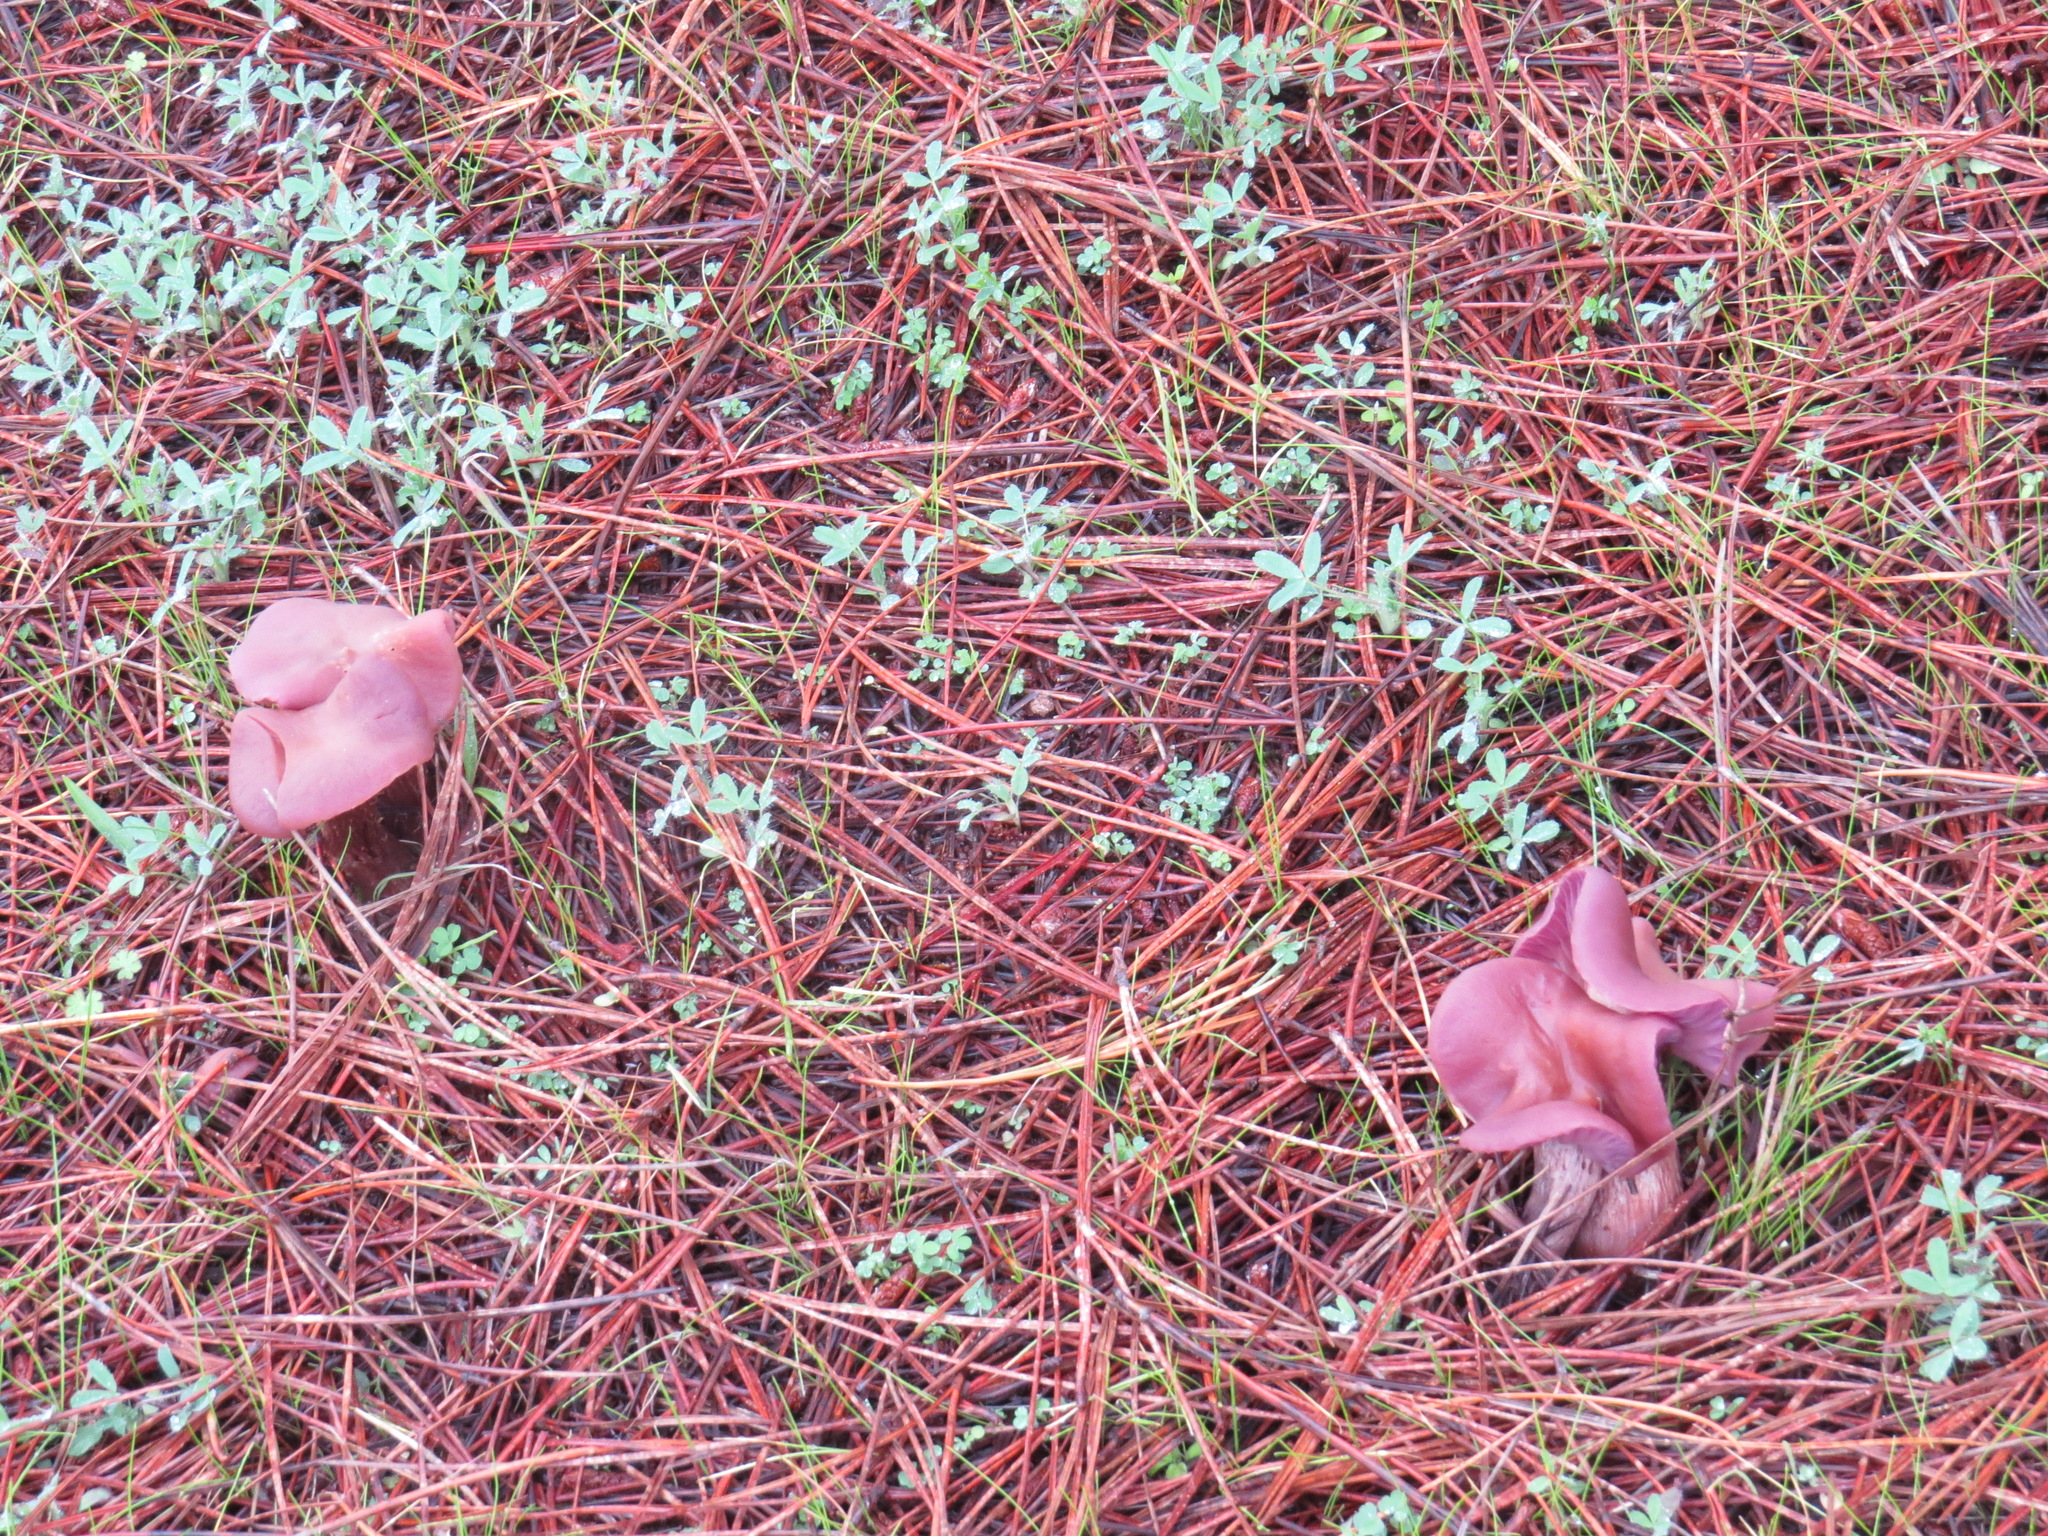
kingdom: Fungi
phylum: Basidiomycota
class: Agaricomycetes
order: Agaricales
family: Hydnangiaceae
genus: Laccaria
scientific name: Laccaria amethysteo-occidentalis
